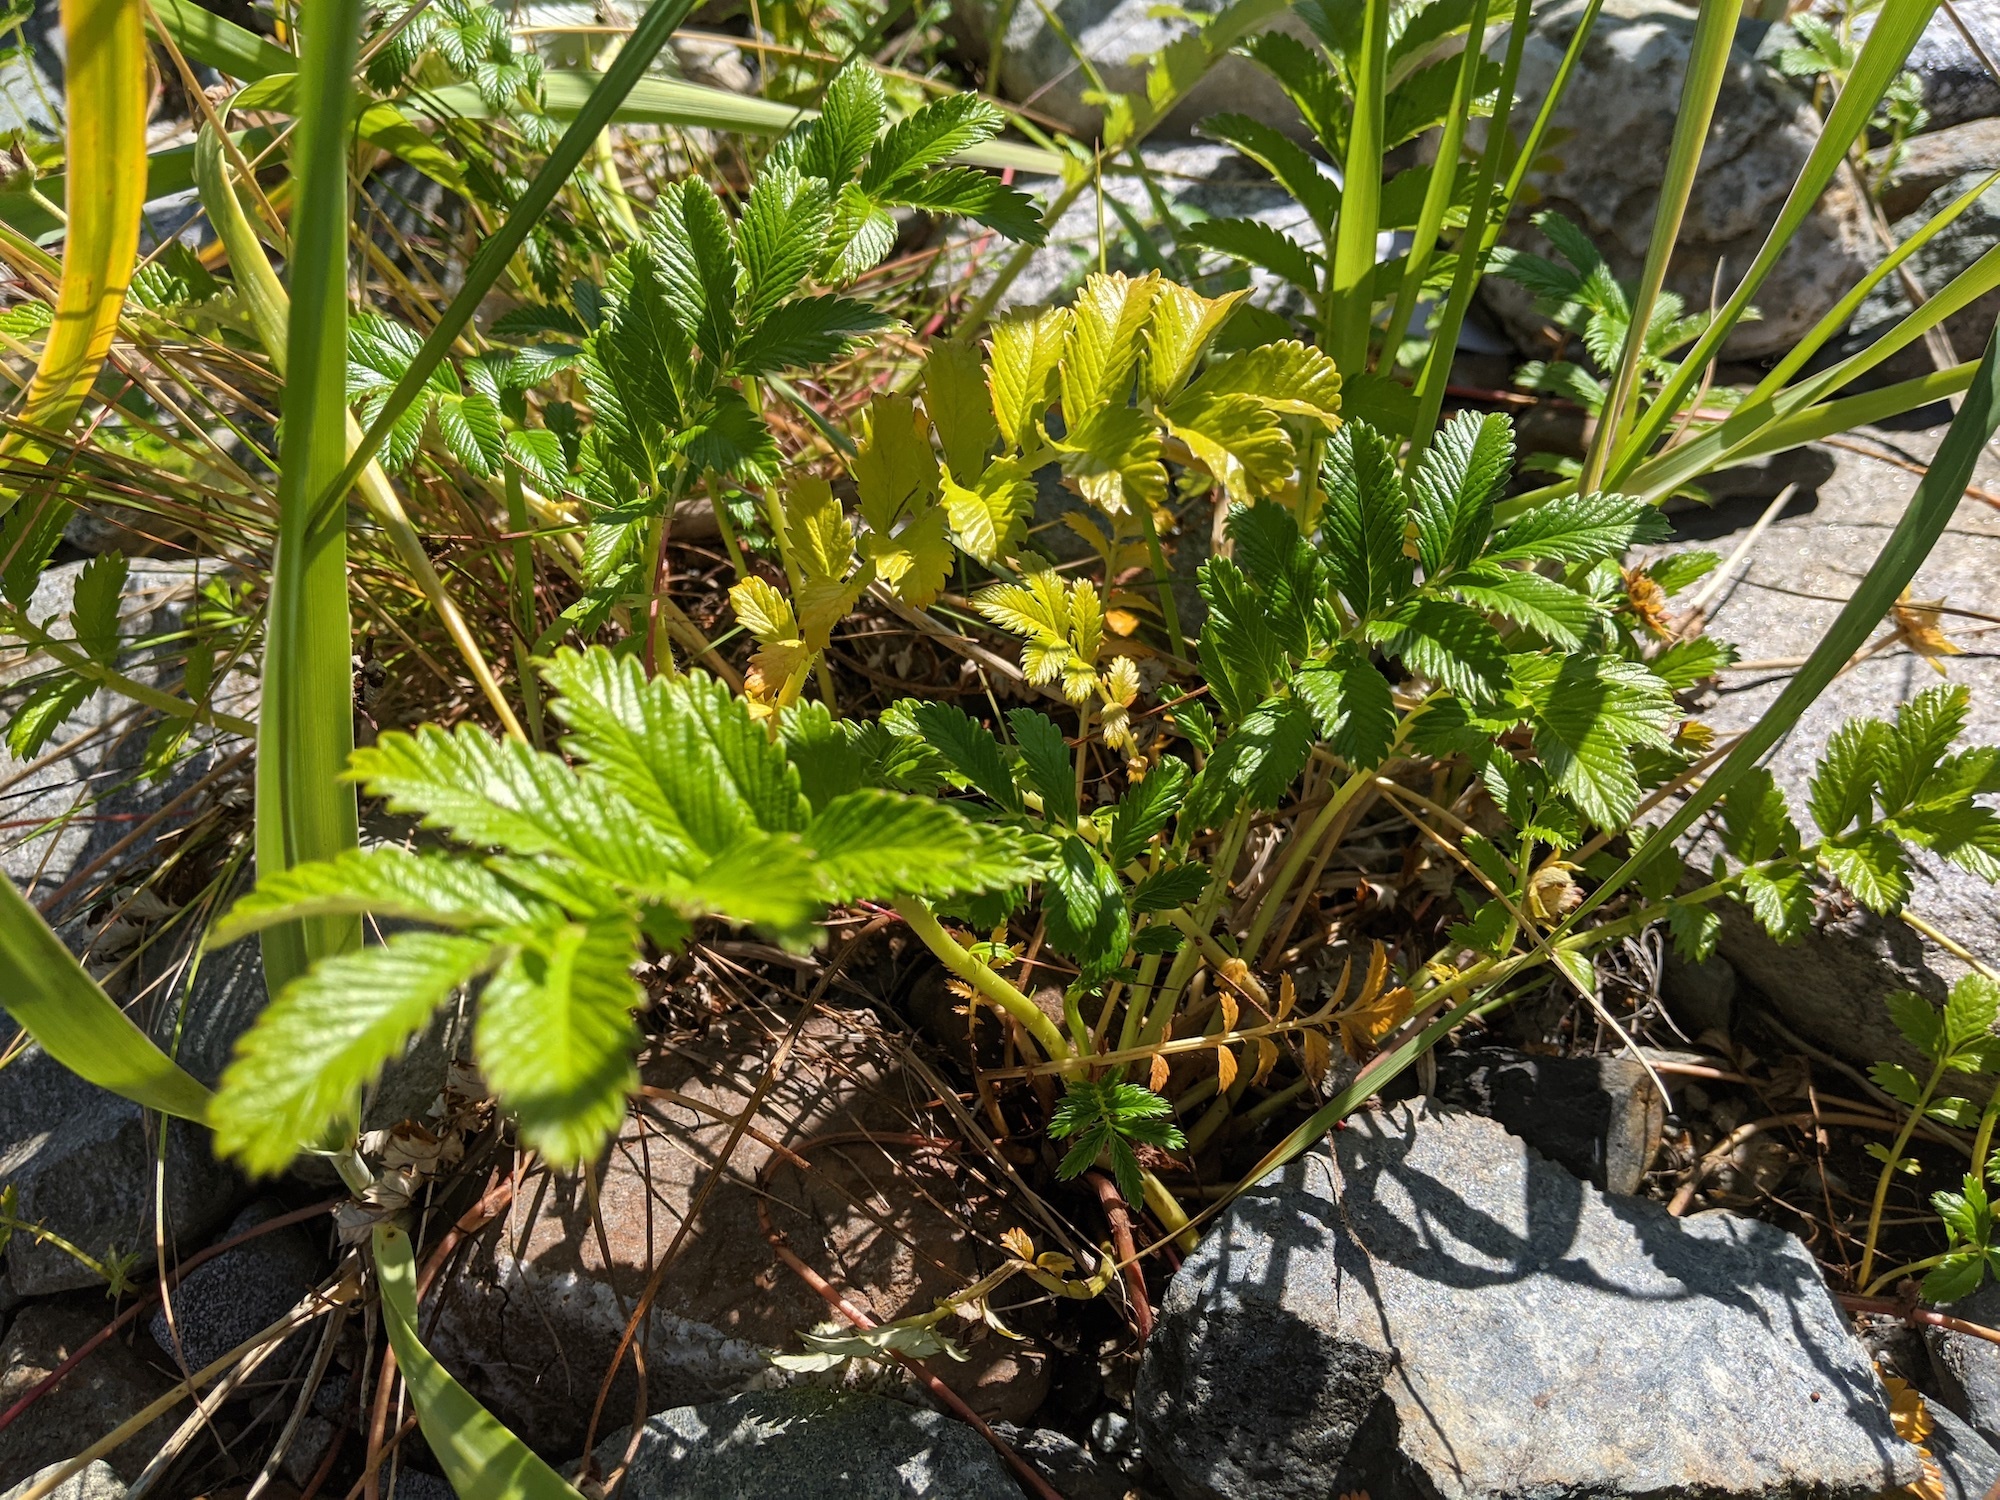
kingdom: Plantae
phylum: Tracheophyta
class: Magnoliopsida
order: Rosales
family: Rosaceae
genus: Argentina
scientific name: Argentina anserina
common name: Common silverweed
